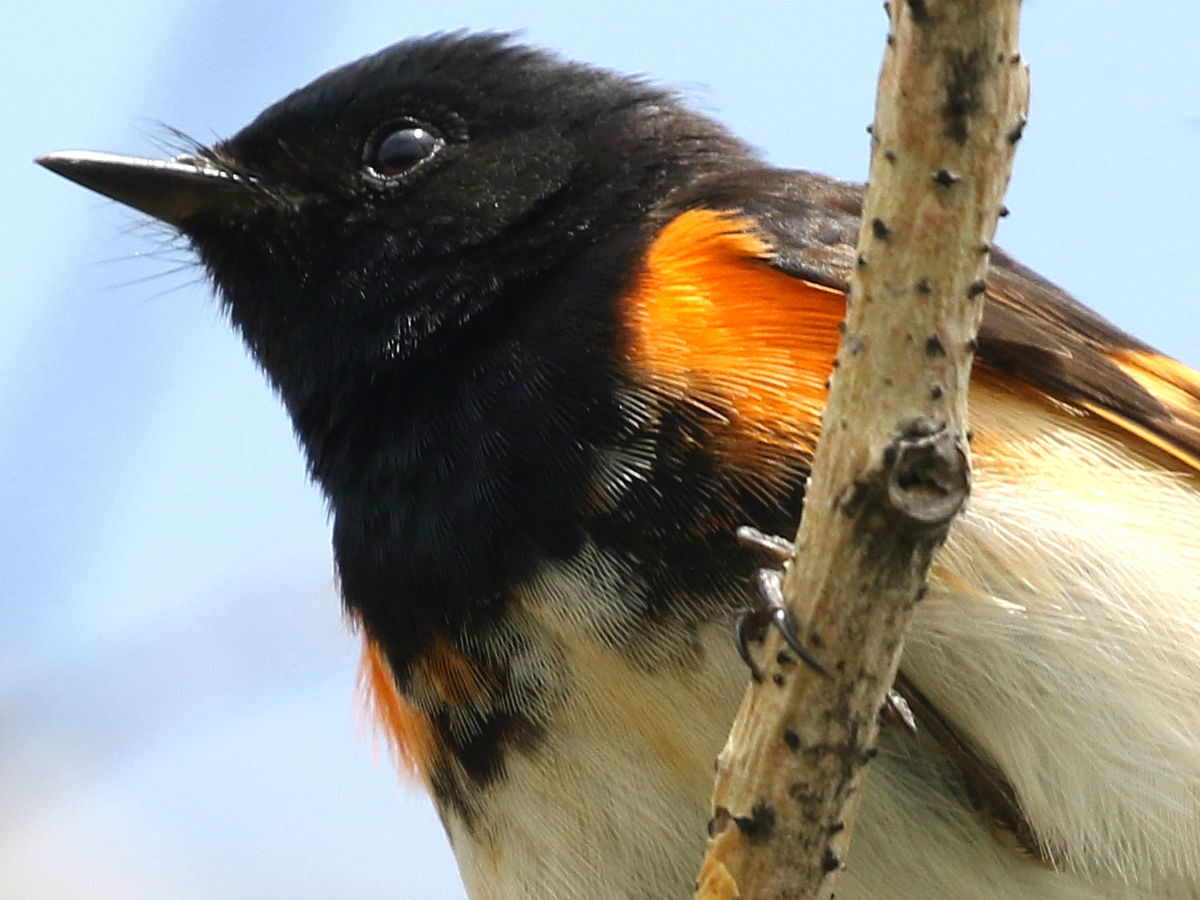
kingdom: Animalia
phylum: Chordata
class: Aves
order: Passeriformes
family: Parulidae
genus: Setophaga
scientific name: Setophaga ruticilla
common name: American redstart
